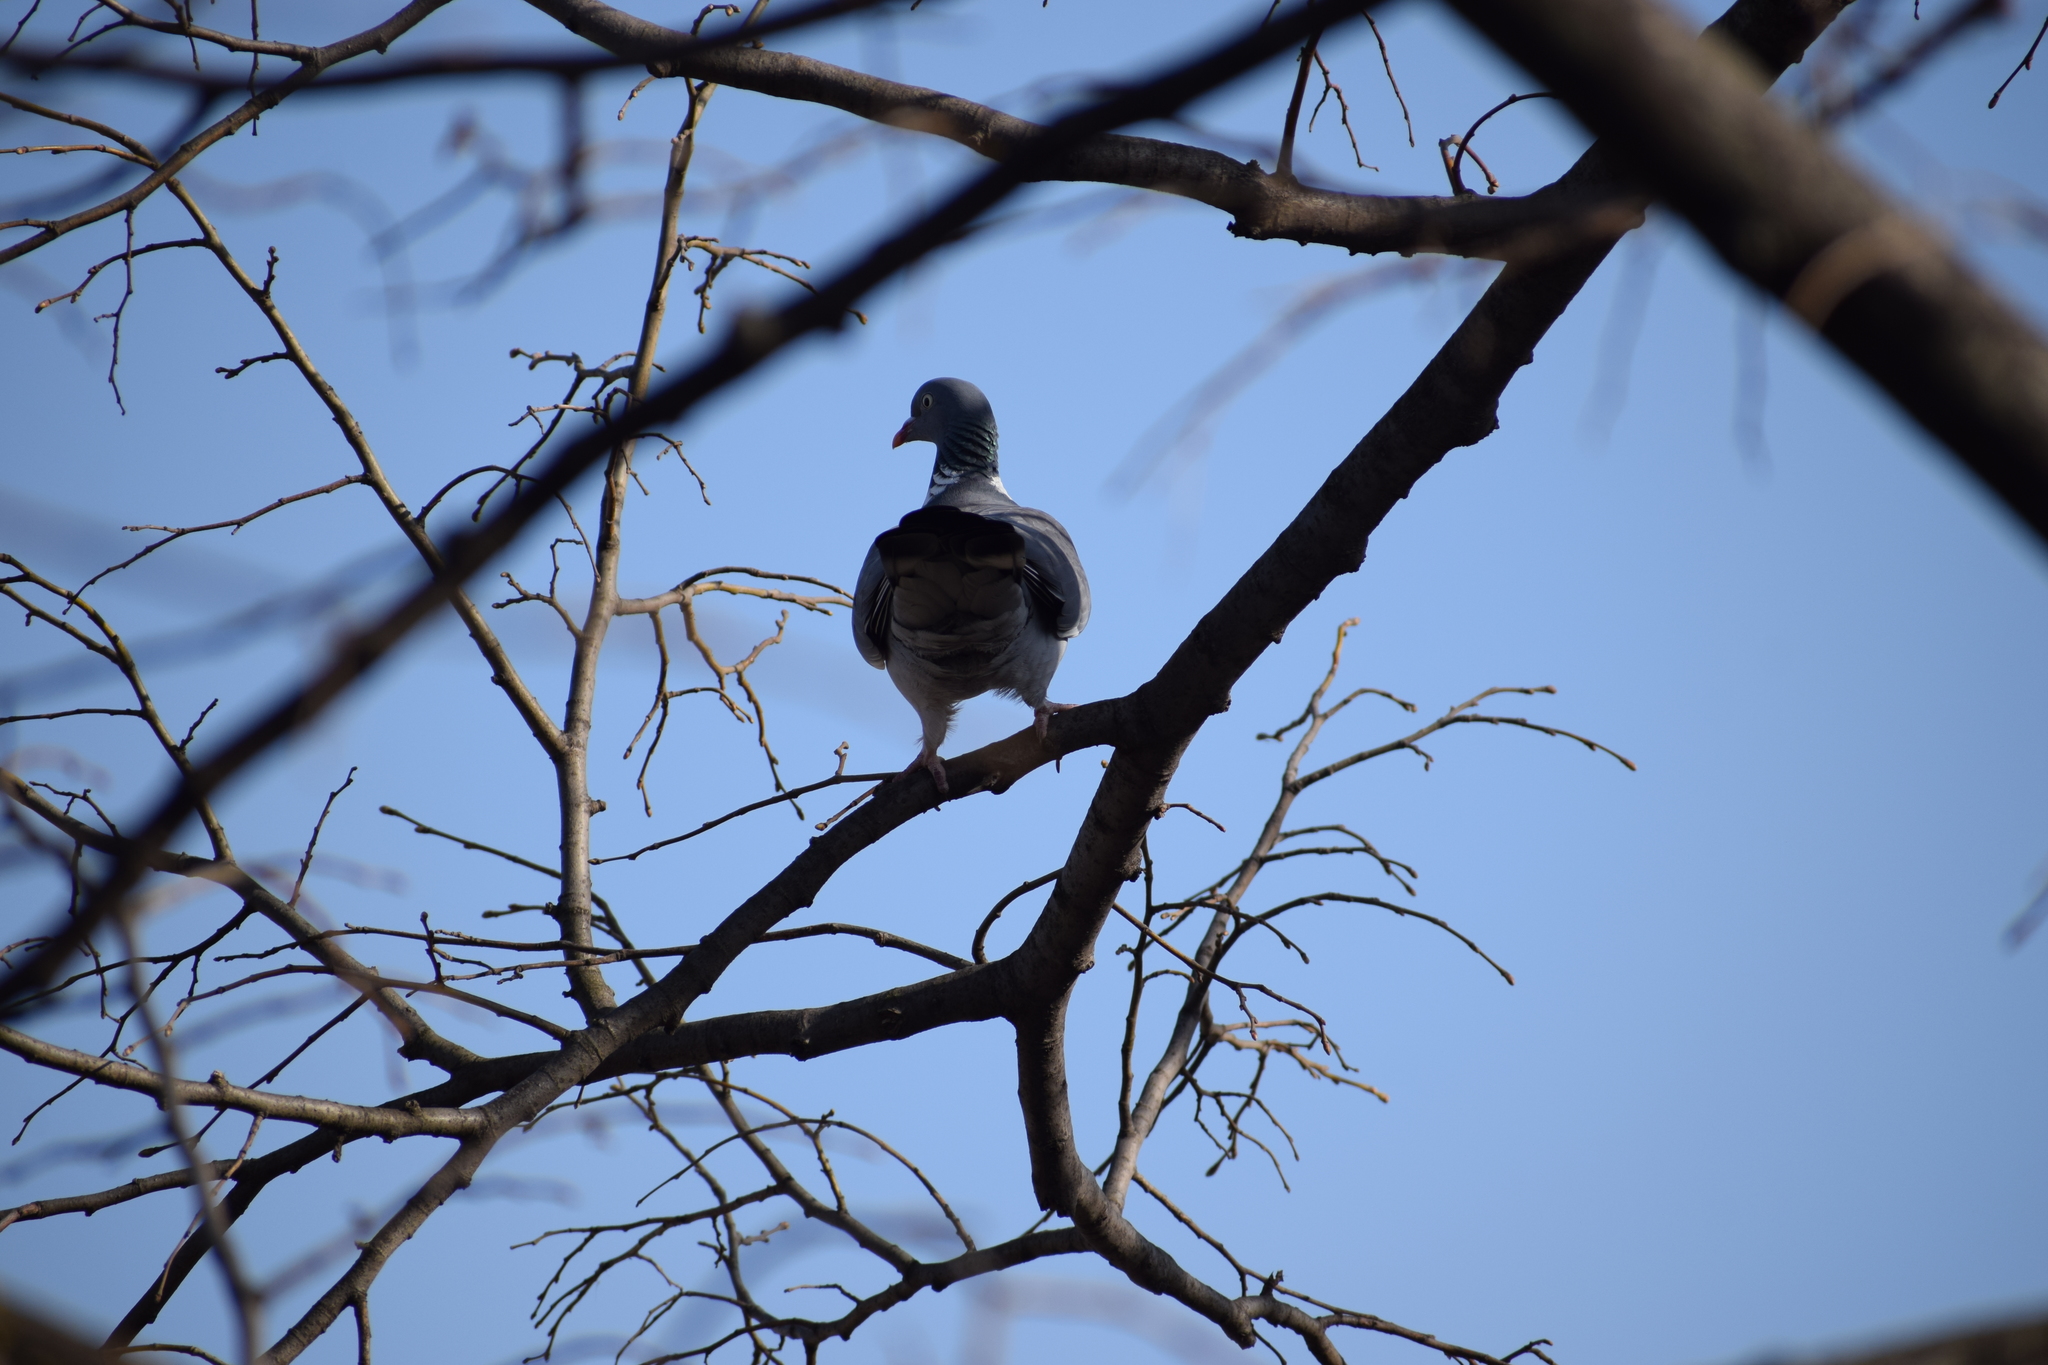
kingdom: Animalia
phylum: Chordata
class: Aves
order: Columbiformes
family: Columbidae
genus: Columba
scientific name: Columba palumbus
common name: Common wood pigeon
